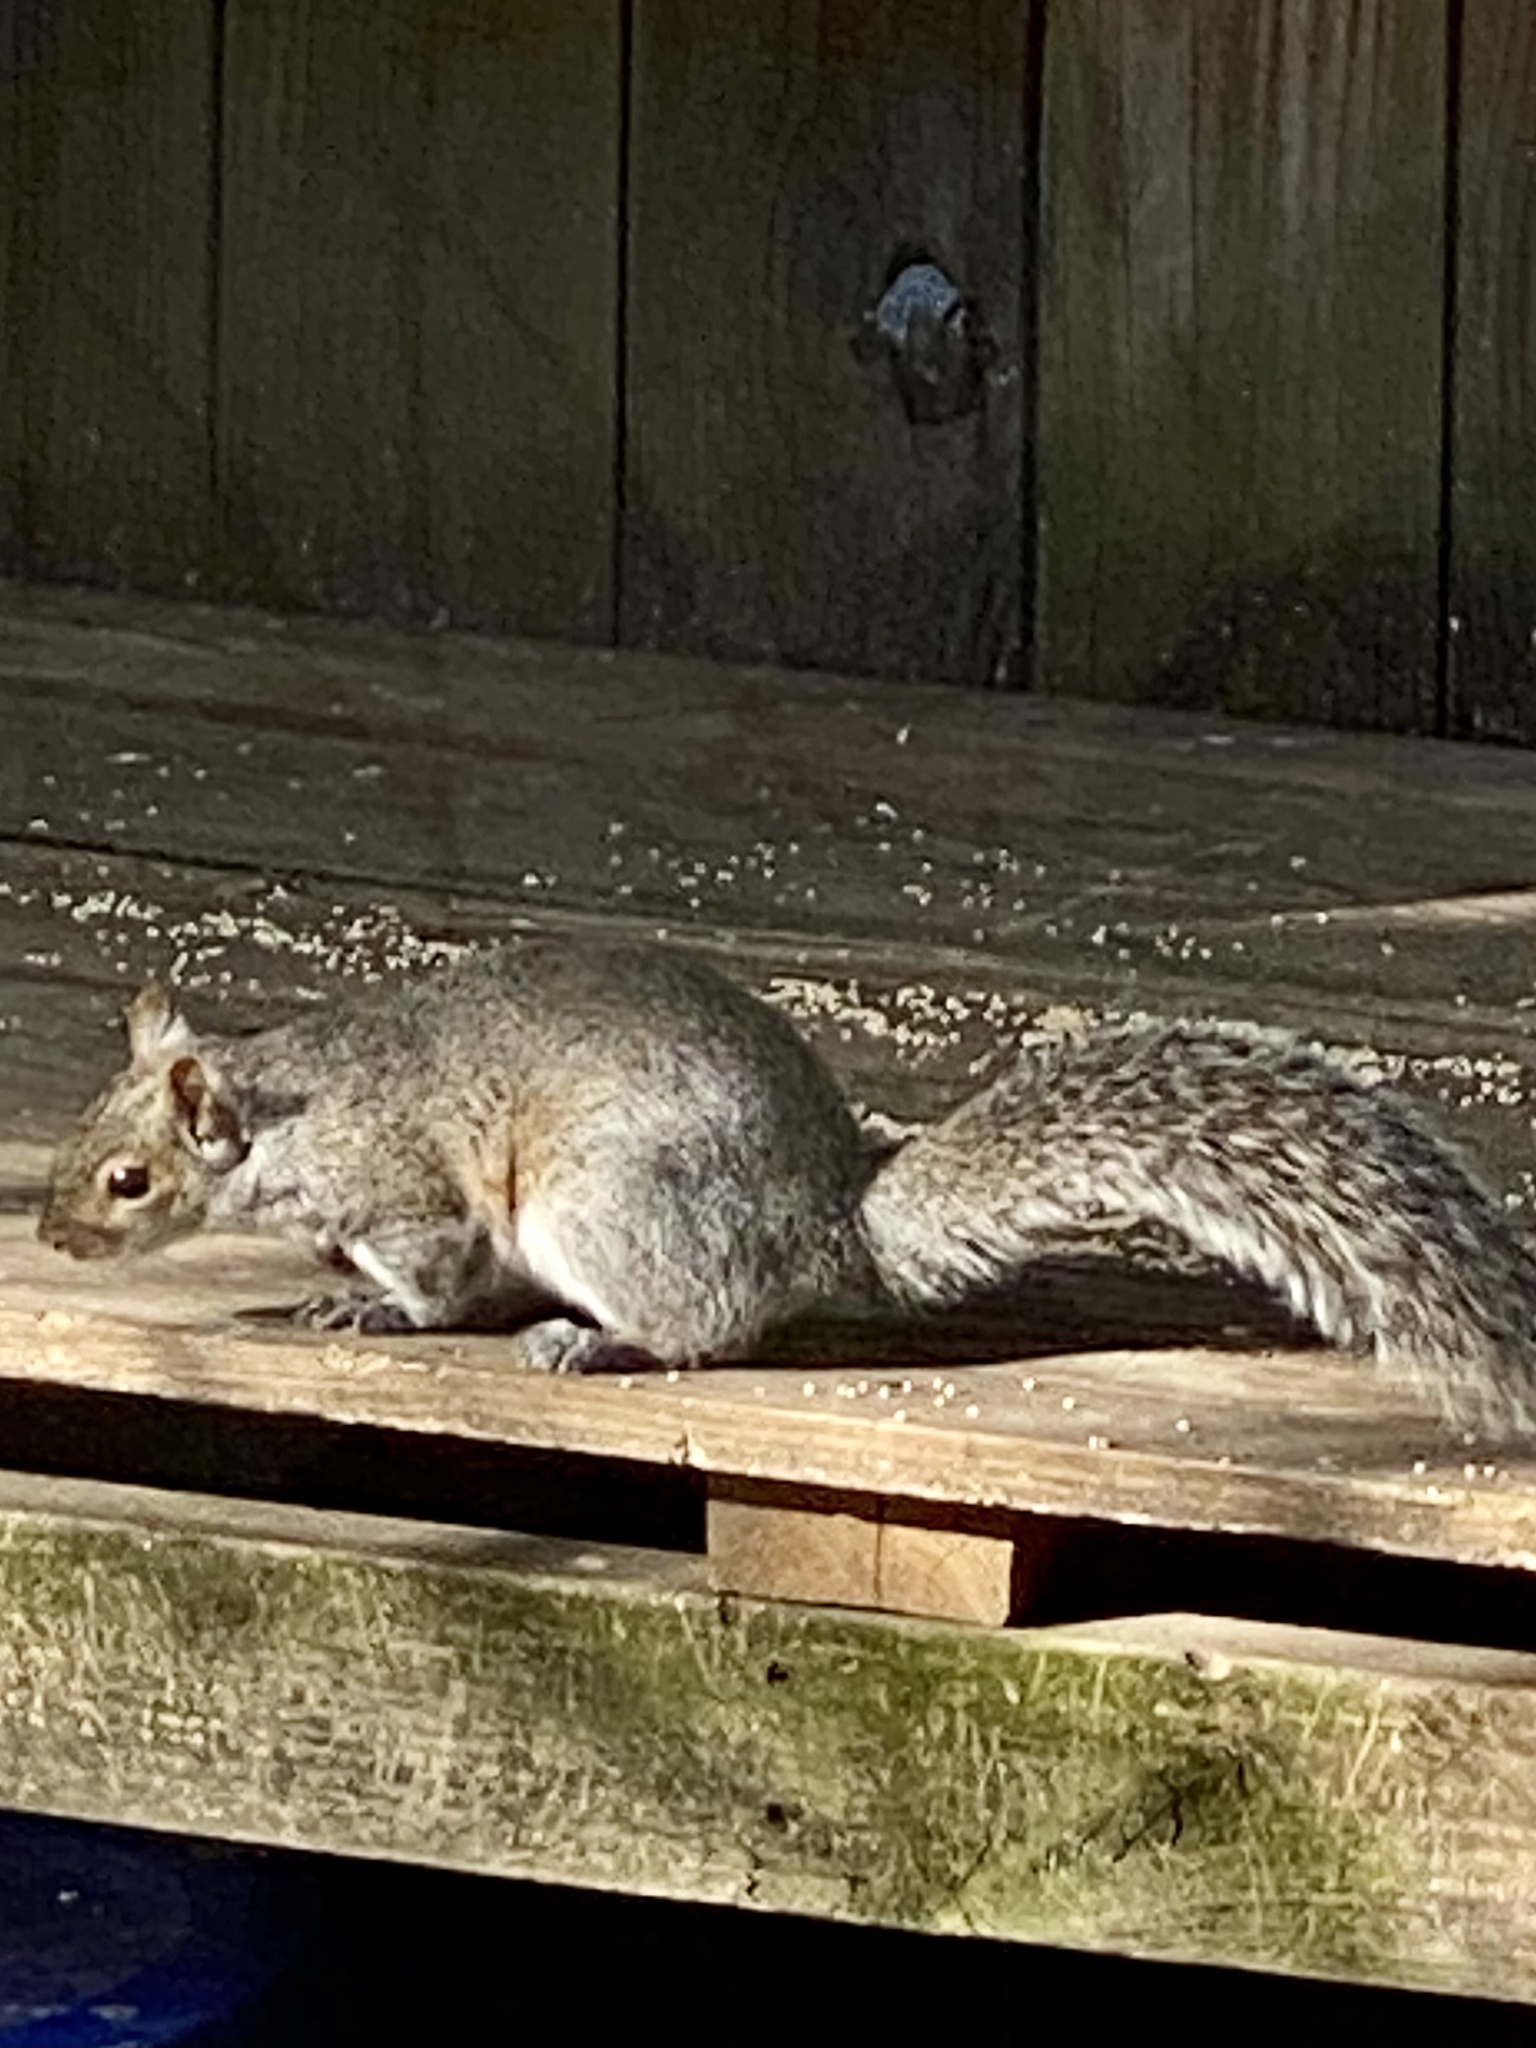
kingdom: Animalia
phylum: Chordata
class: Mammalia
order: Rodentia
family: Sciuridae
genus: Sciurus
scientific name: Sciurus carolinensis
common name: Eastern gray squirrel
